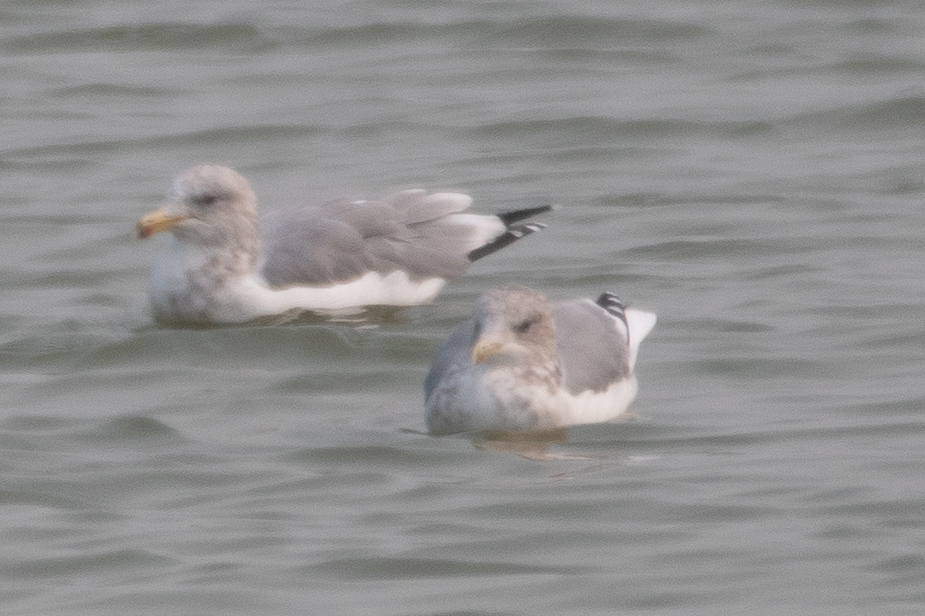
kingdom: Animalia
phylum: Chordata
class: Aves
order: Charadriiformes
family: Laridae
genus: Larus
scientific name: Larus californicus
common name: California gull
